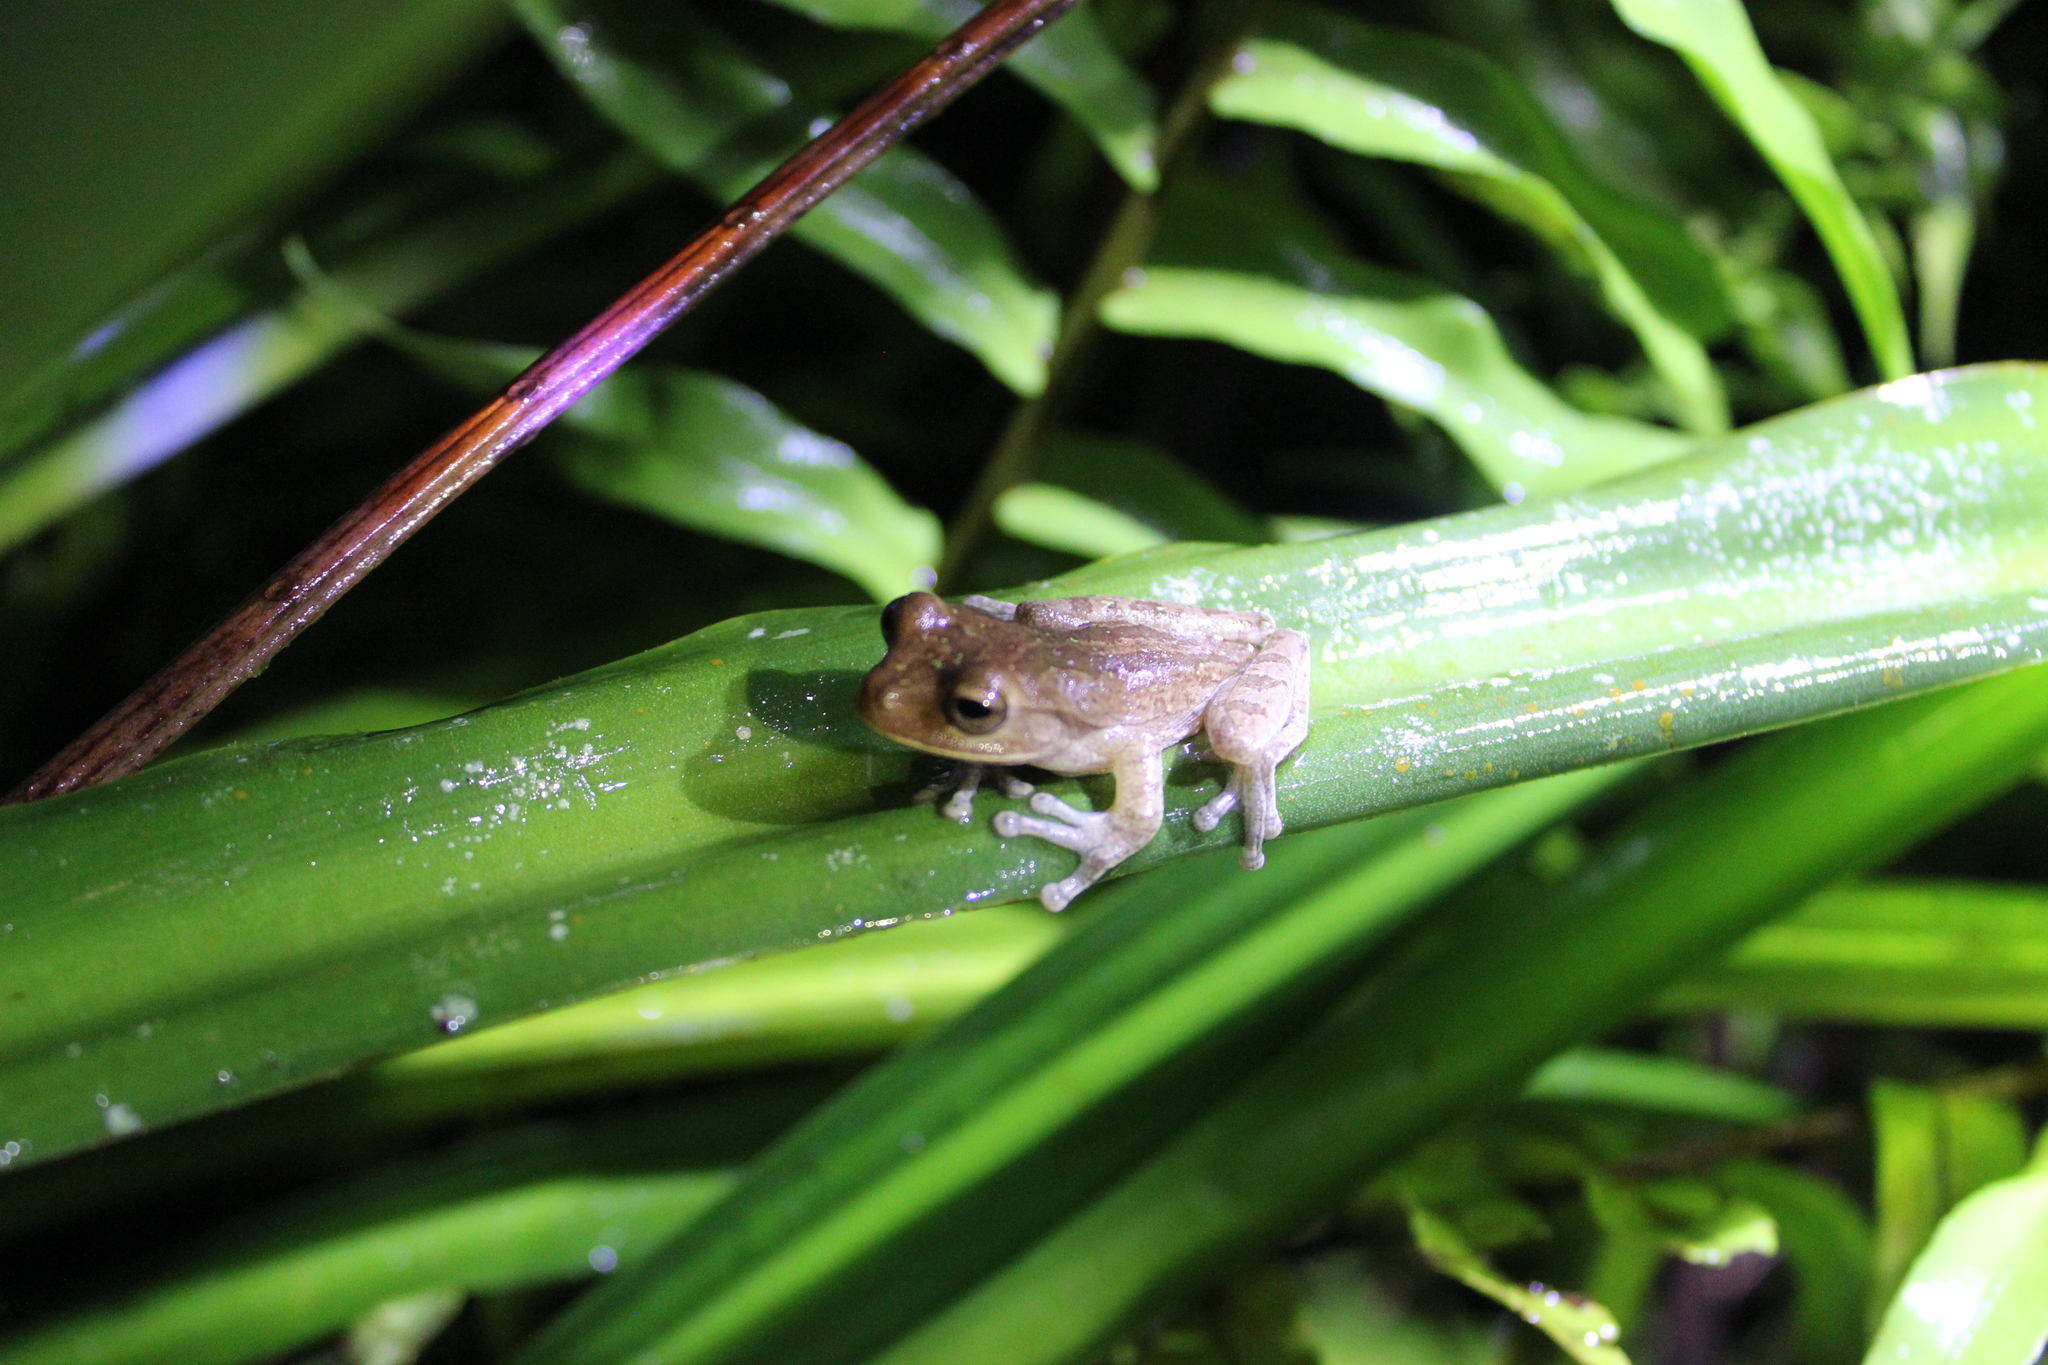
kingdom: Animalia
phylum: Chordata
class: Amphibia
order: Anura
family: Hylidae
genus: Smilisca
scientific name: Smilisca puma
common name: Nicaragua cross-banded treefrog
